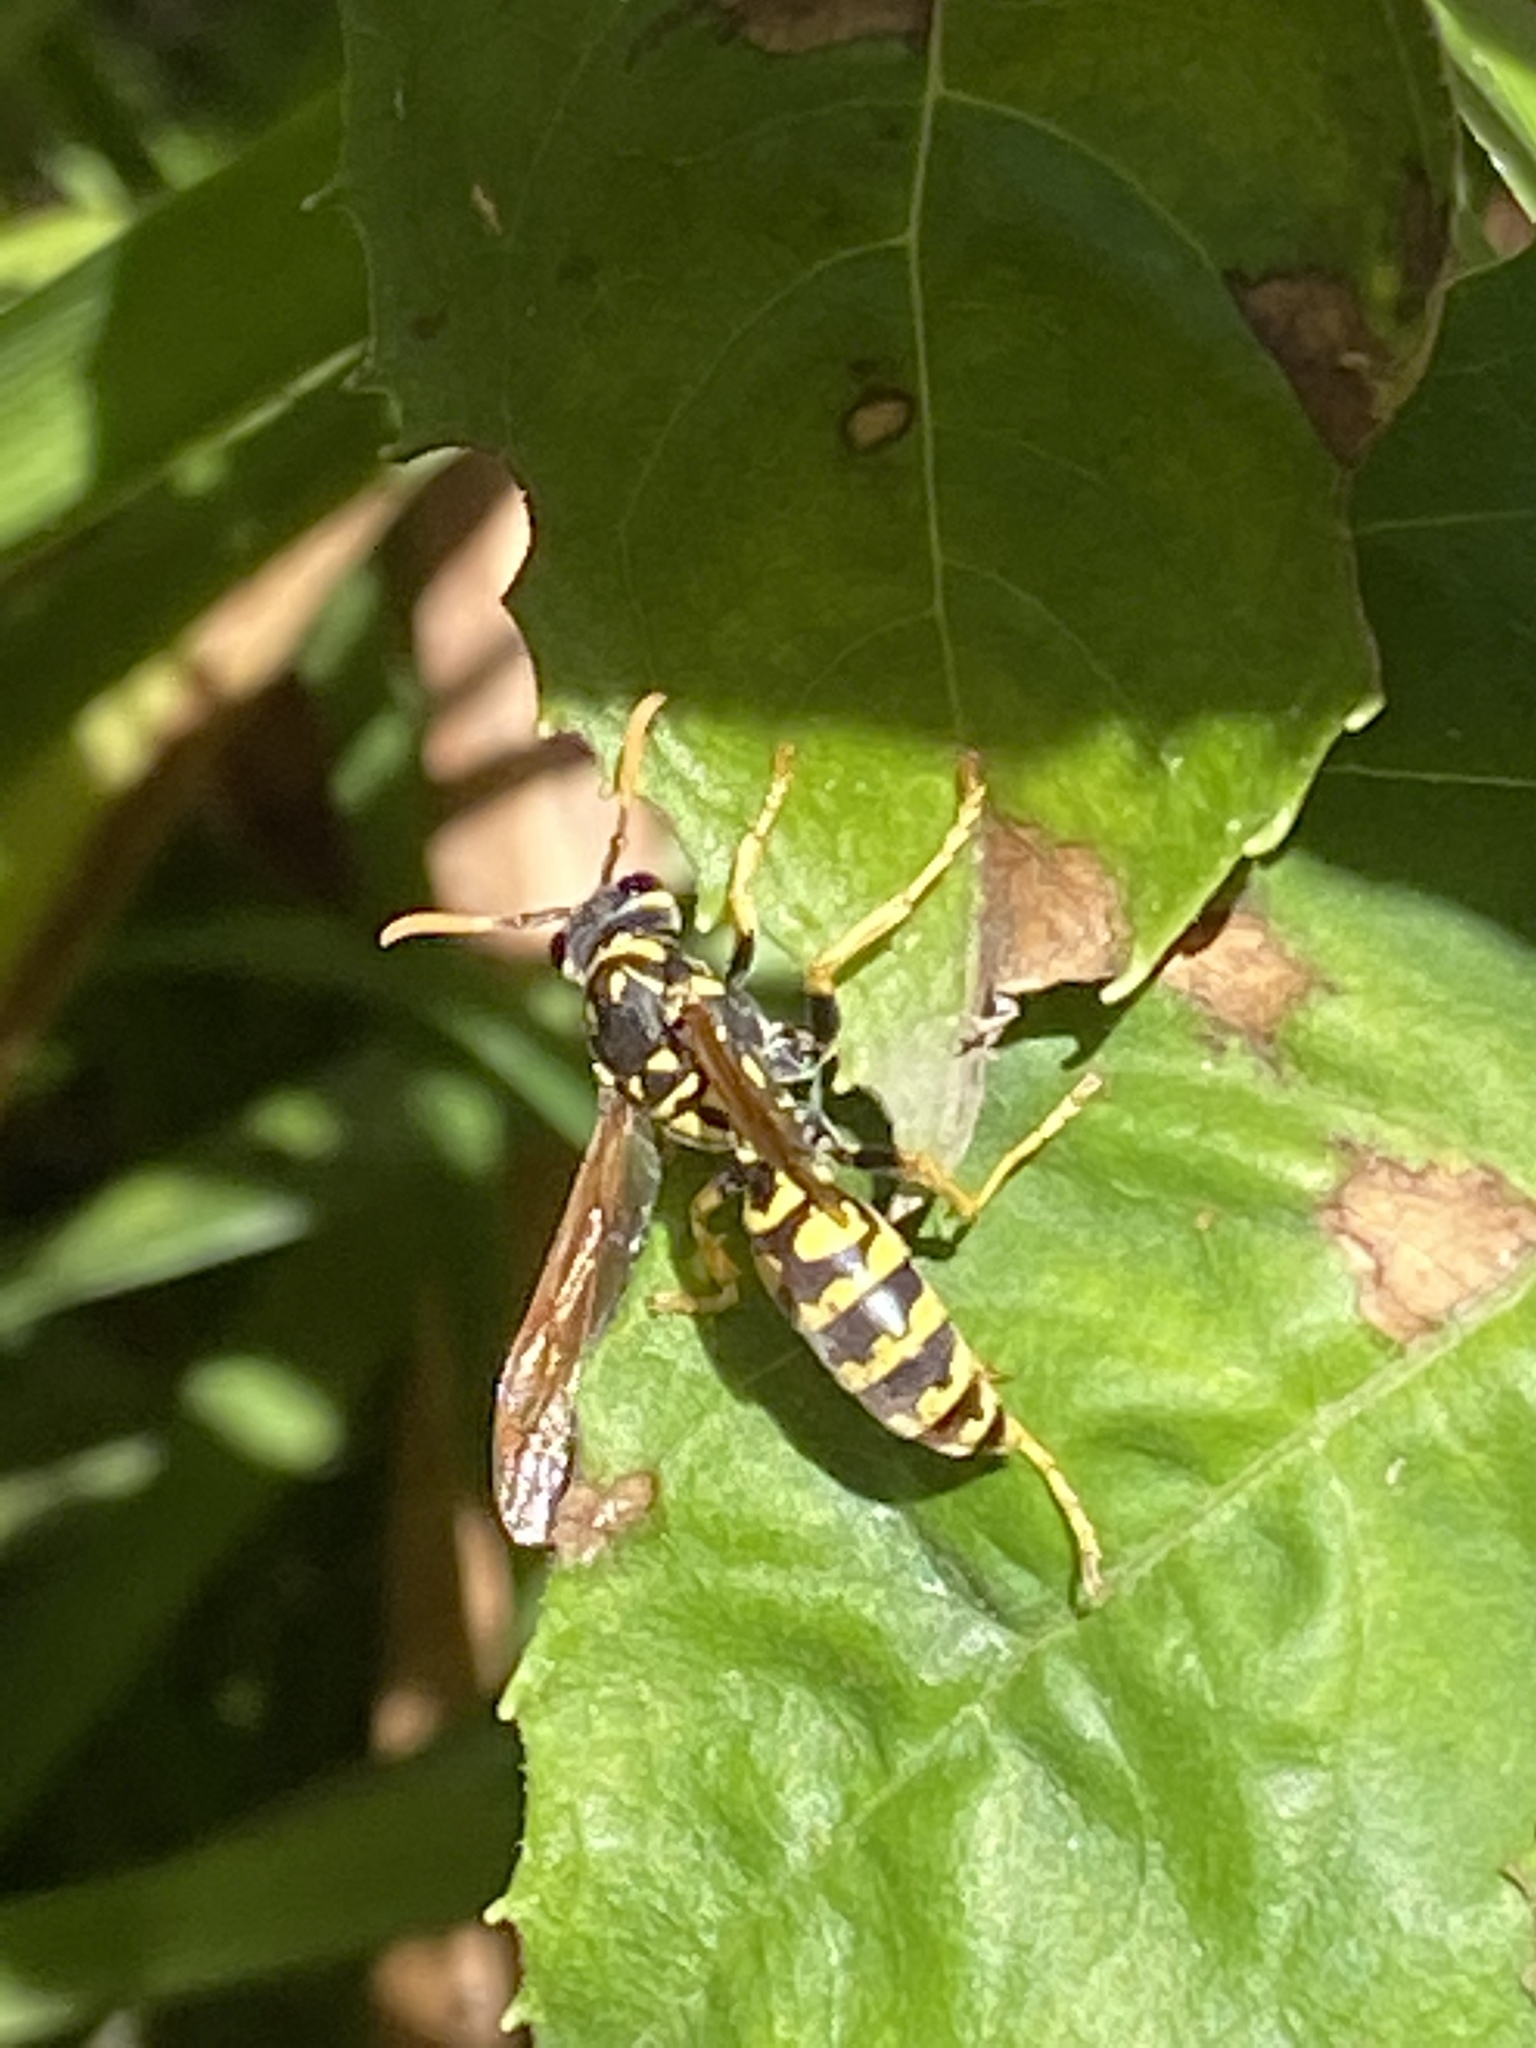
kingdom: Animalia
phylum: Arthropoda
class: Insecta
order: Hymenoptera
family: Eumenidae
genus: Polistes
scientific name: Polistes dominula
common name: Paper wasp
